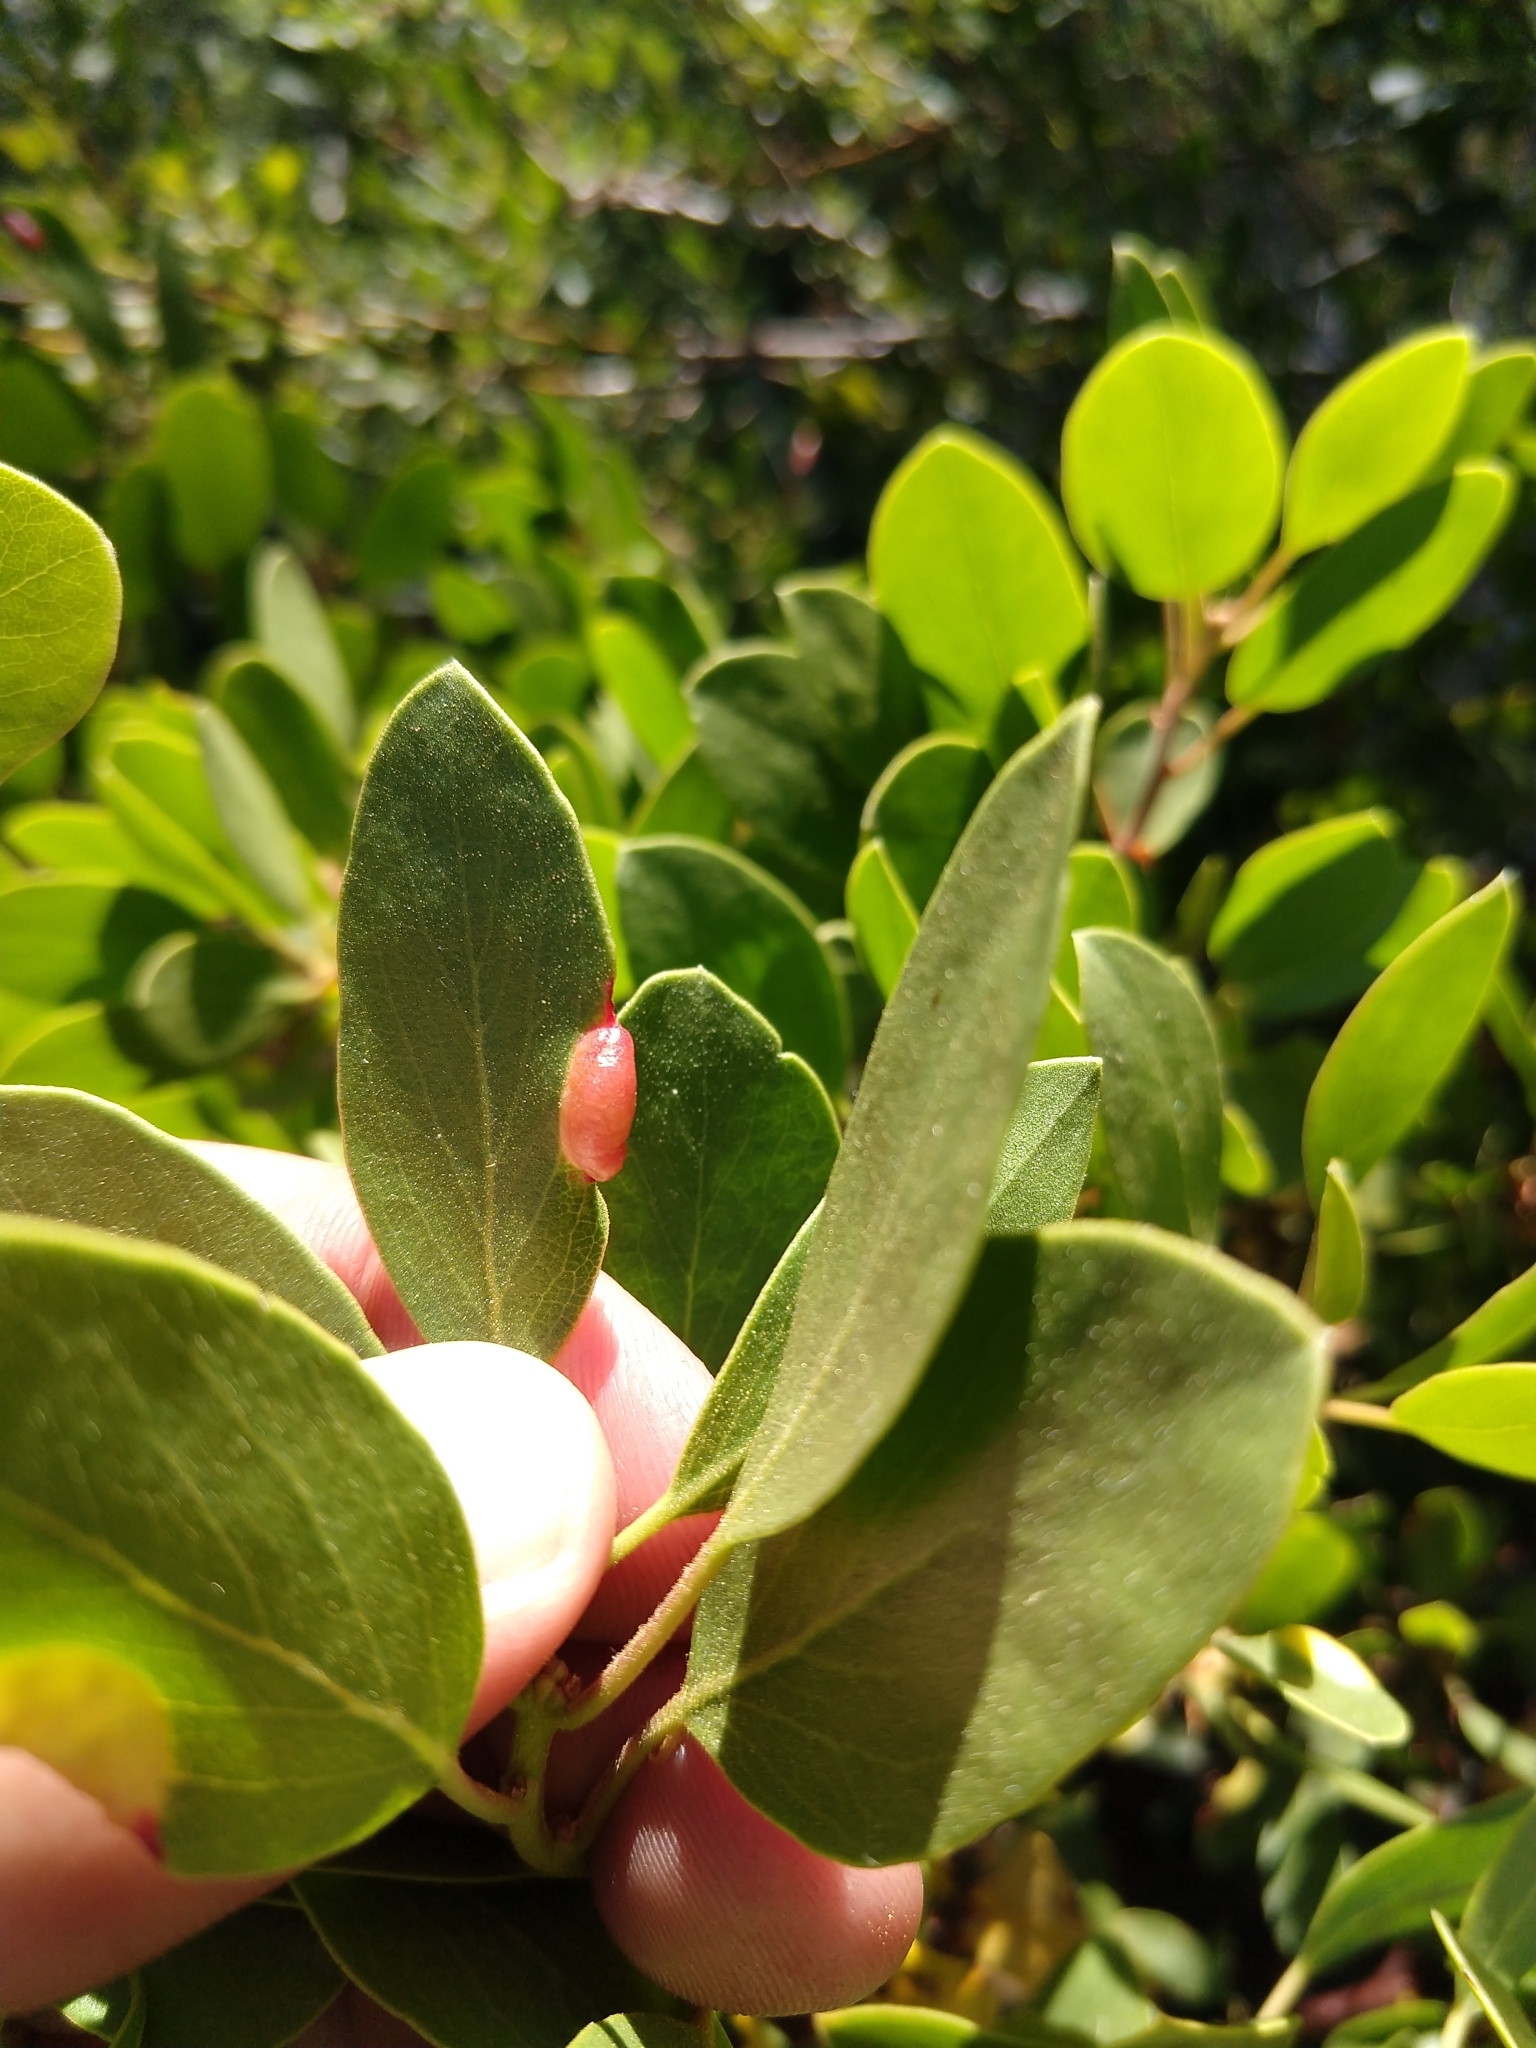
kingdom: Animalia
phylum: Arthropoda
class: Insecta
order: Hemiptera
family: Aphididae
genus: Tamalia
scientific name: Tamalia coweni
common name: Manzanita leafgall aphid
